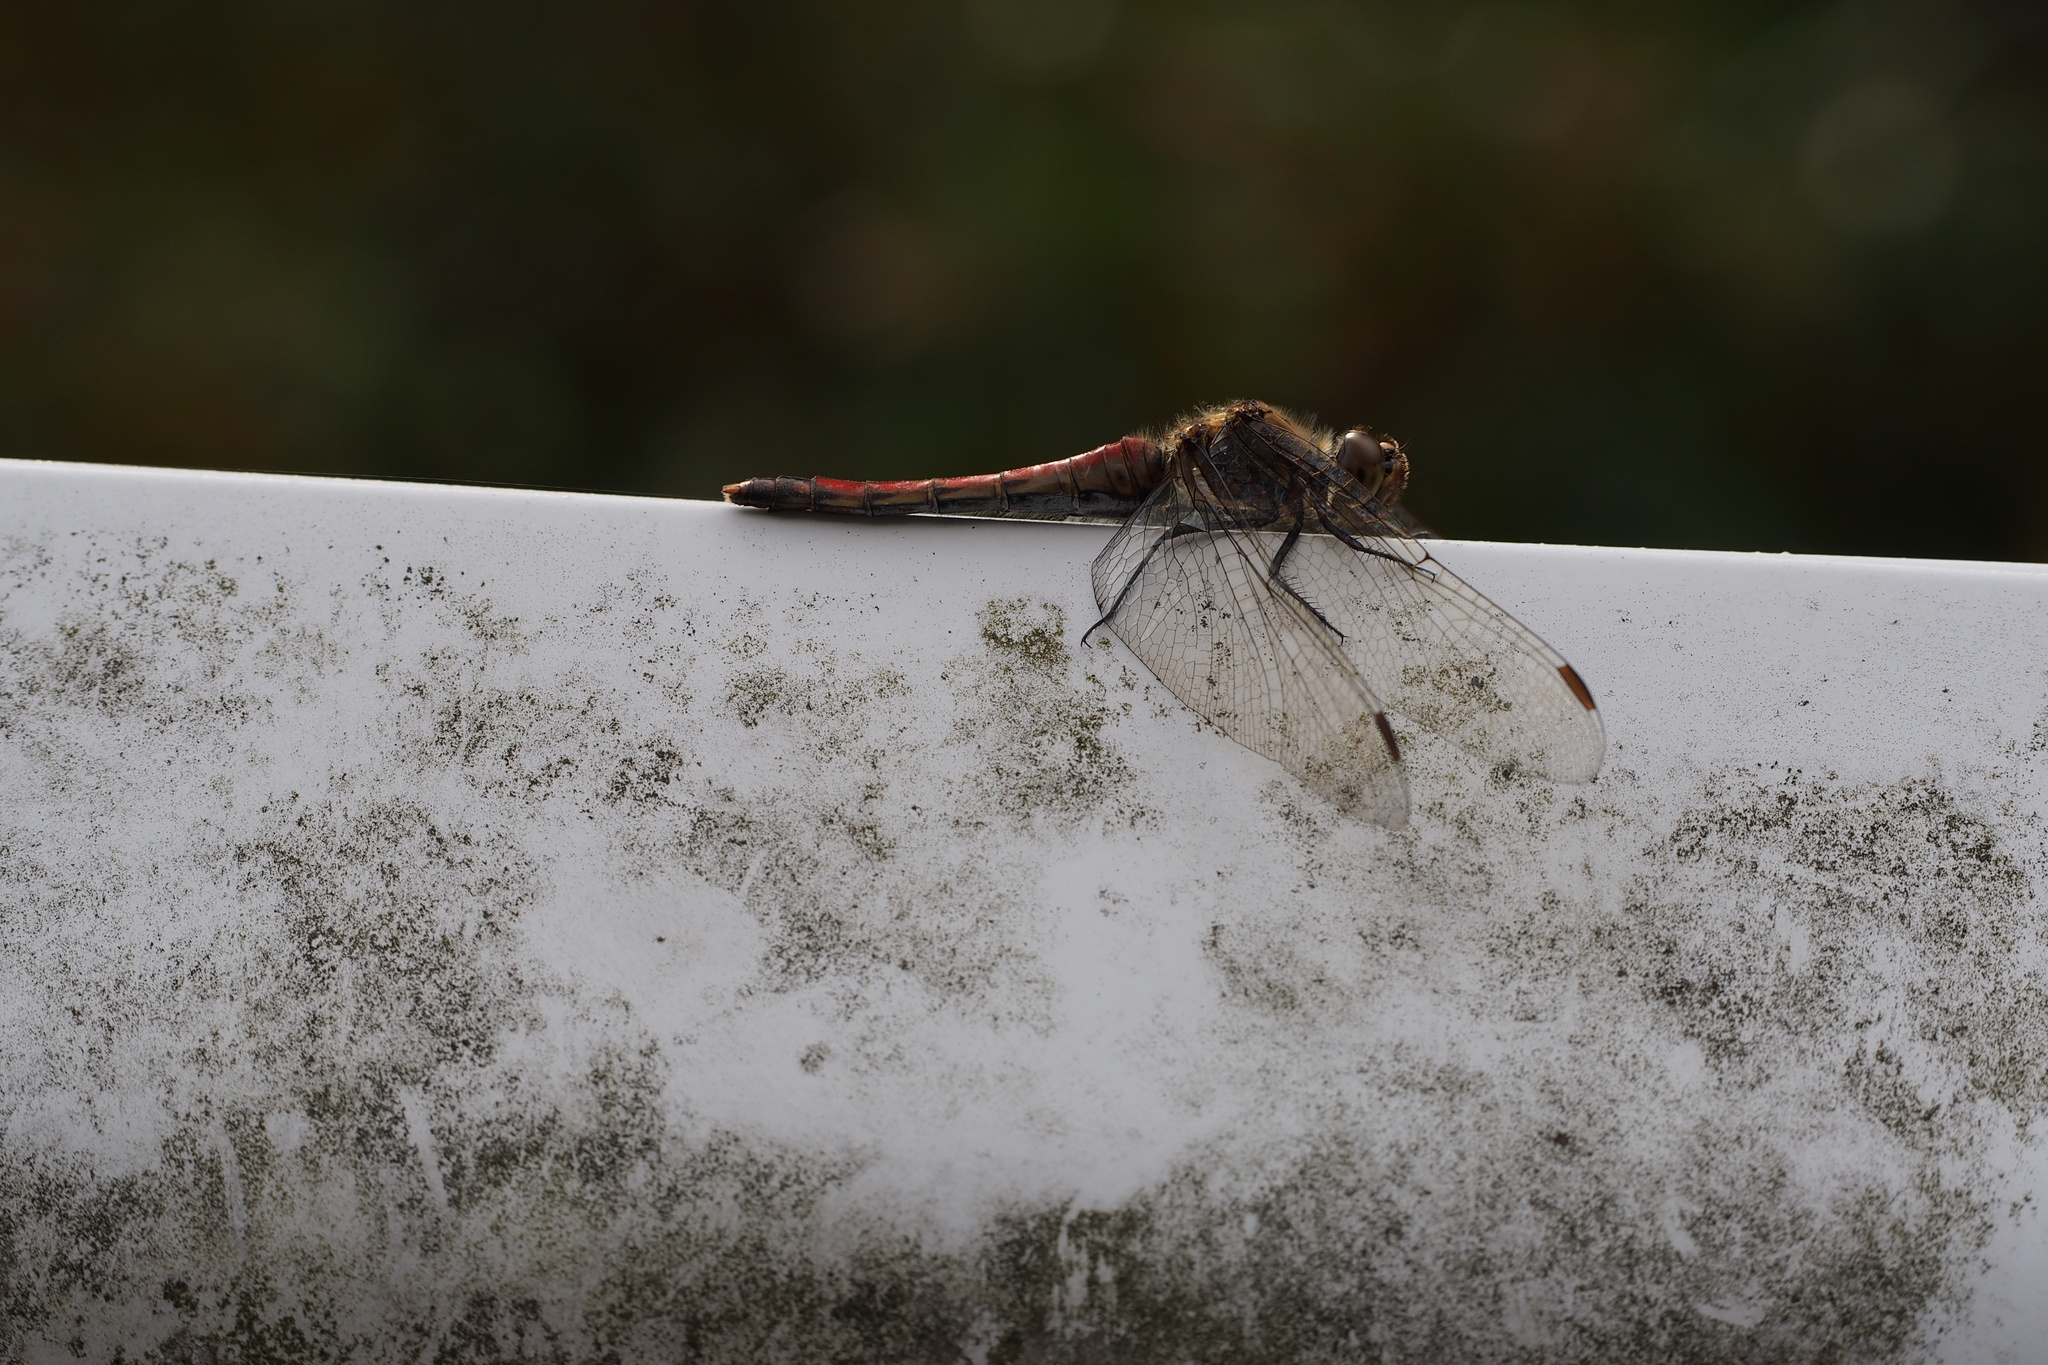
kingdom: Animalia
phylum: Arthropoda
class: Insecta
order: Odonata
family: Libellulidae
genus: Sympetrum
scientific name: Sympetrum frequens
